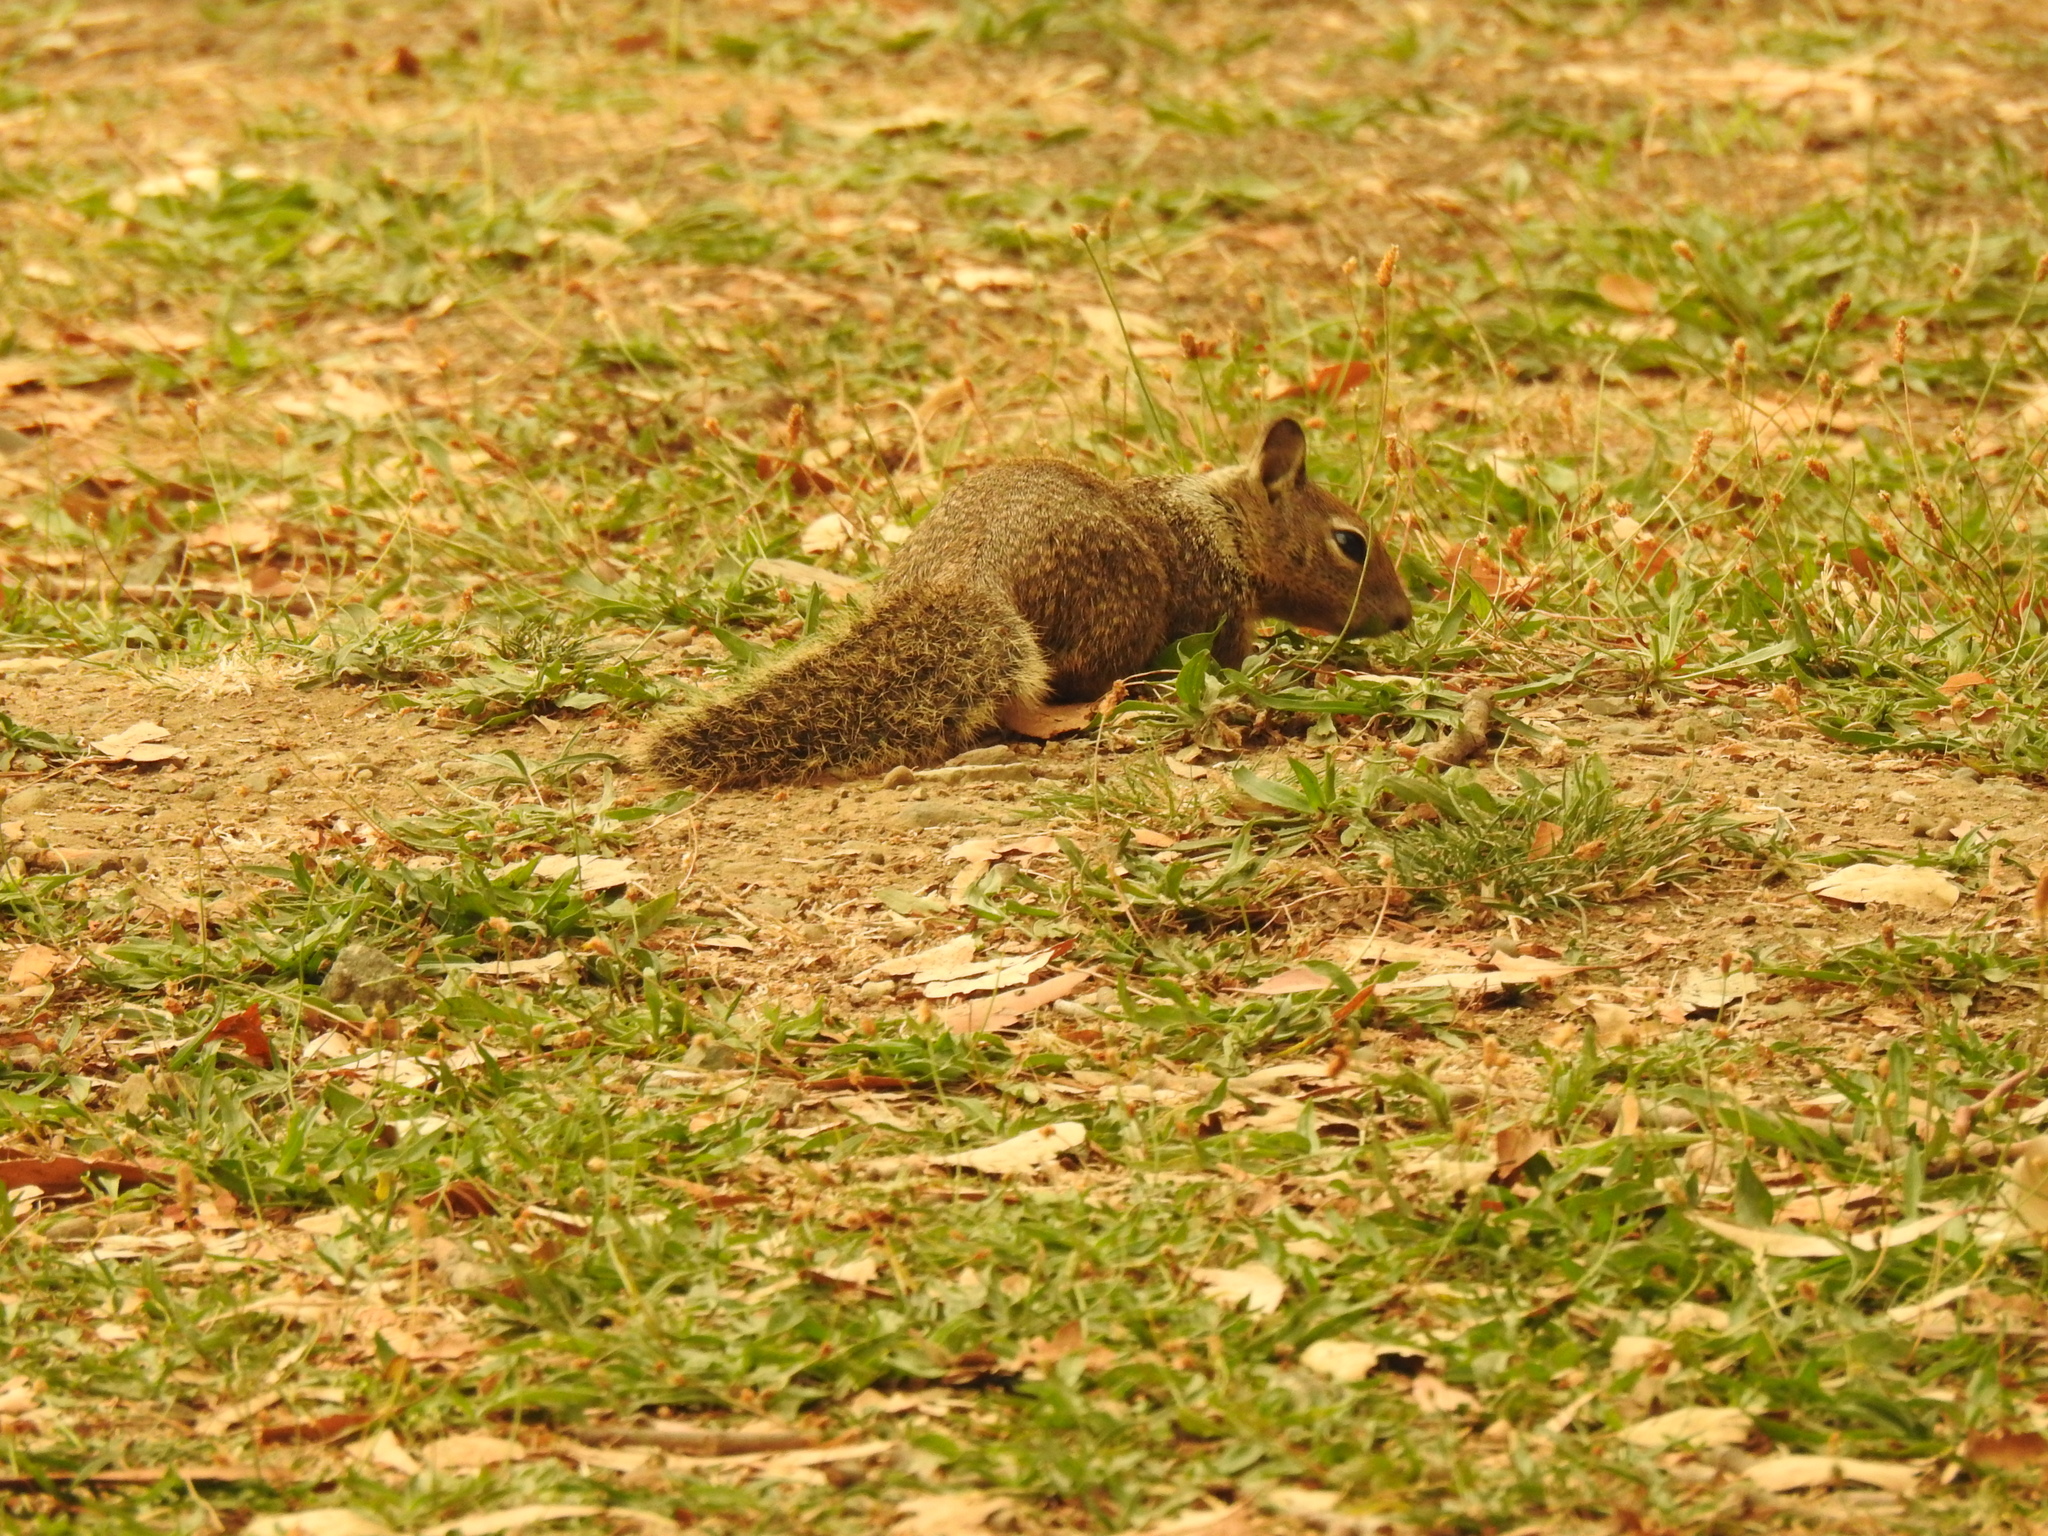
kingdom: Animalia
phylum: Chordata
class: Mammalia
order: Rodentia
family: Sciuridae
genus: Otospermophilus
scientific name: Otospermophilus beecheyi
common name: California ground squirrel
